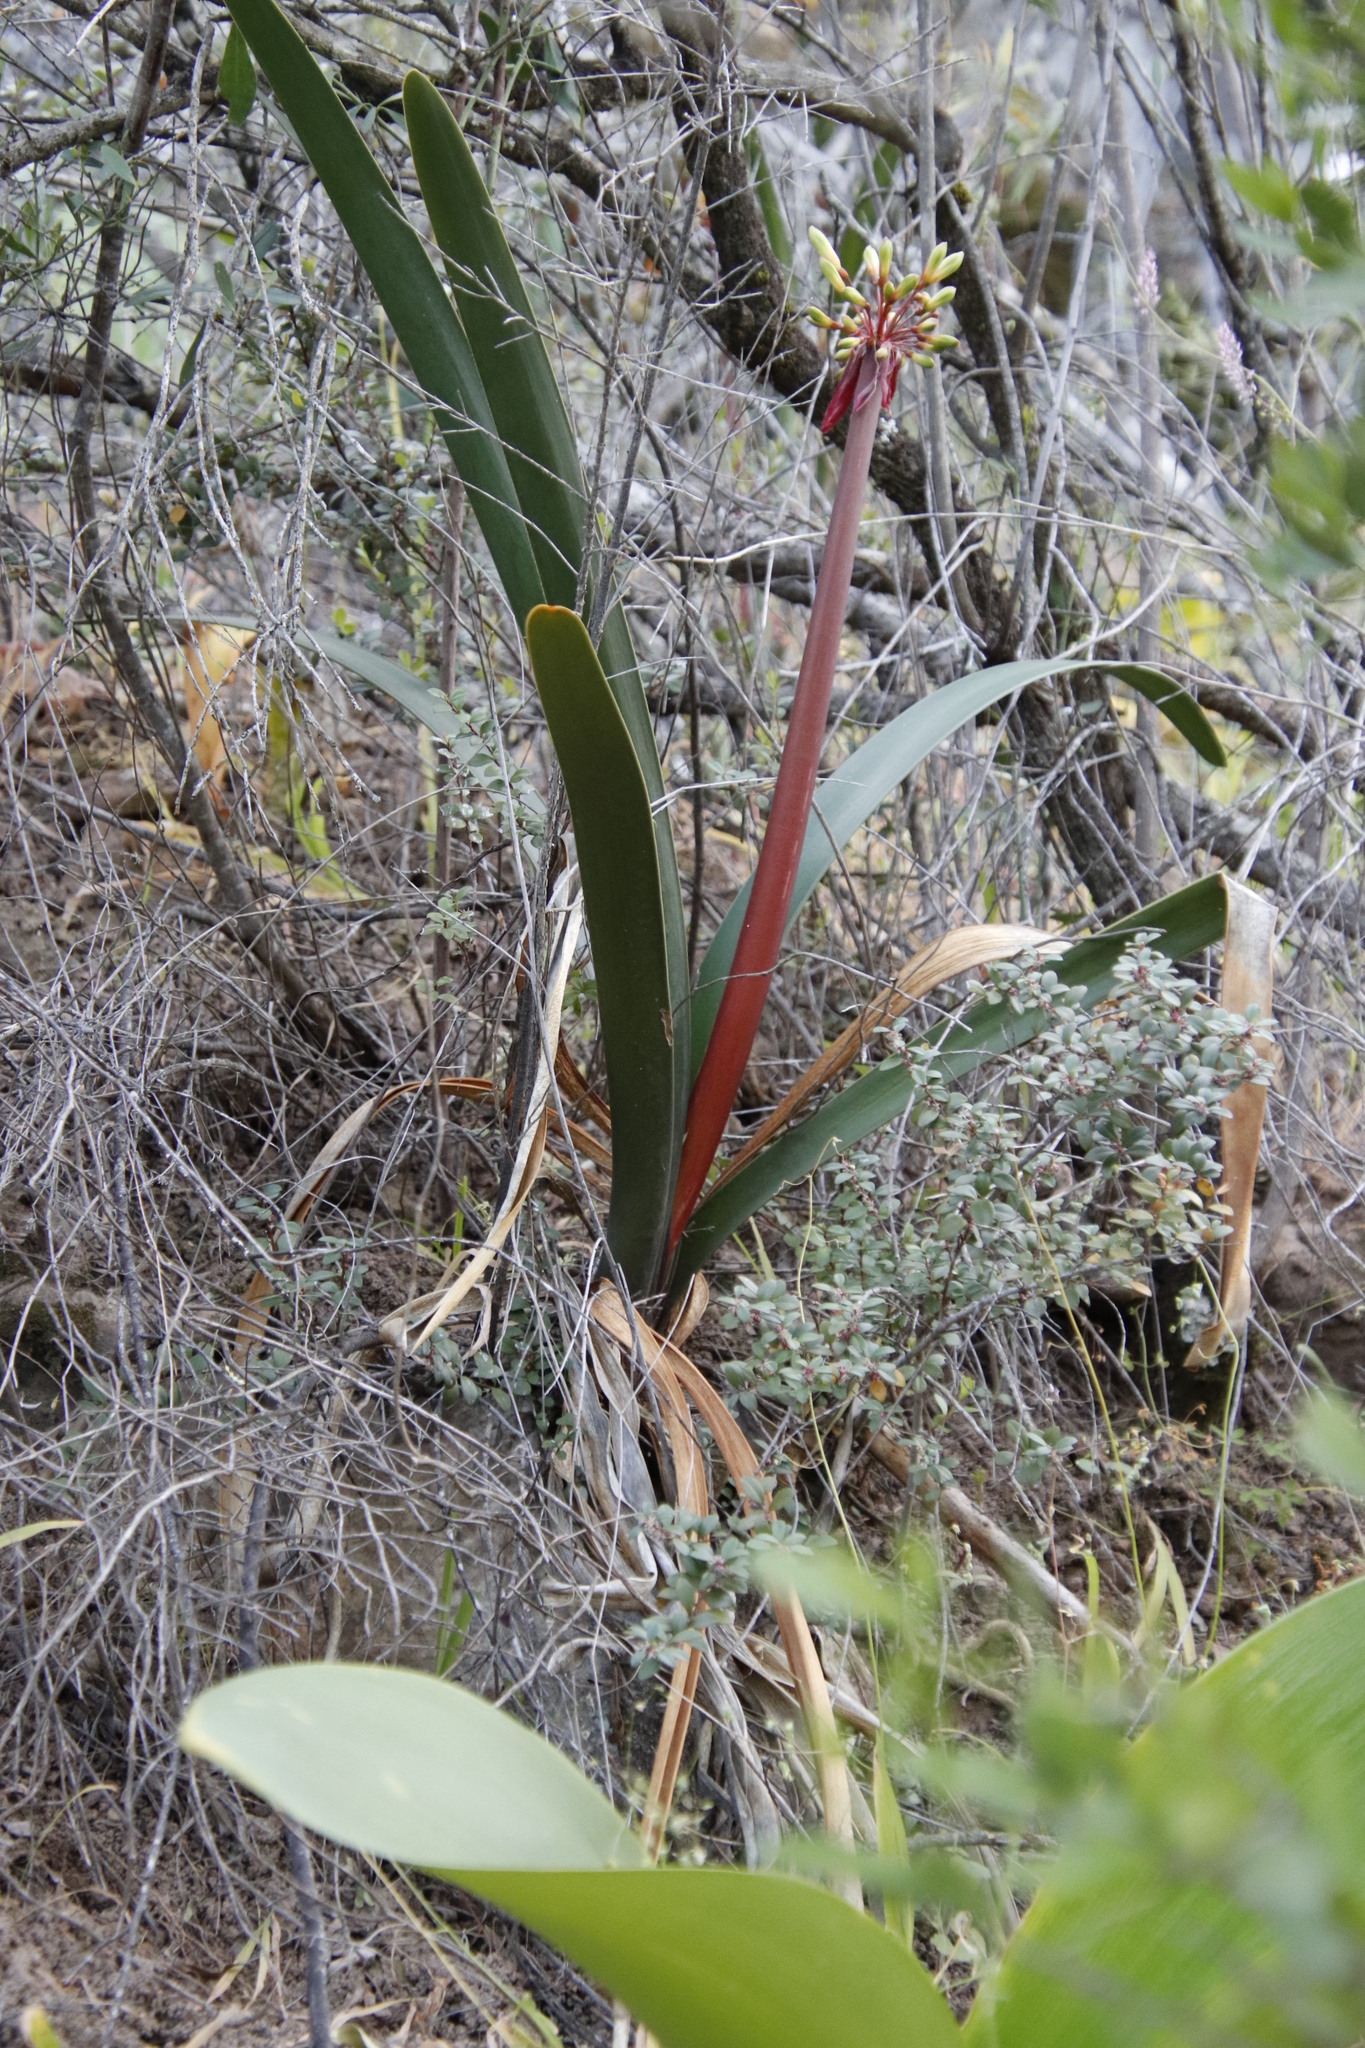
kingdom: Plantae
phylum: Tracheophyta
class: Liliopsida
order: Asparagales
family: Amaryllidaceae
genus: Clivia
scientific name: Clivia mirabilis
